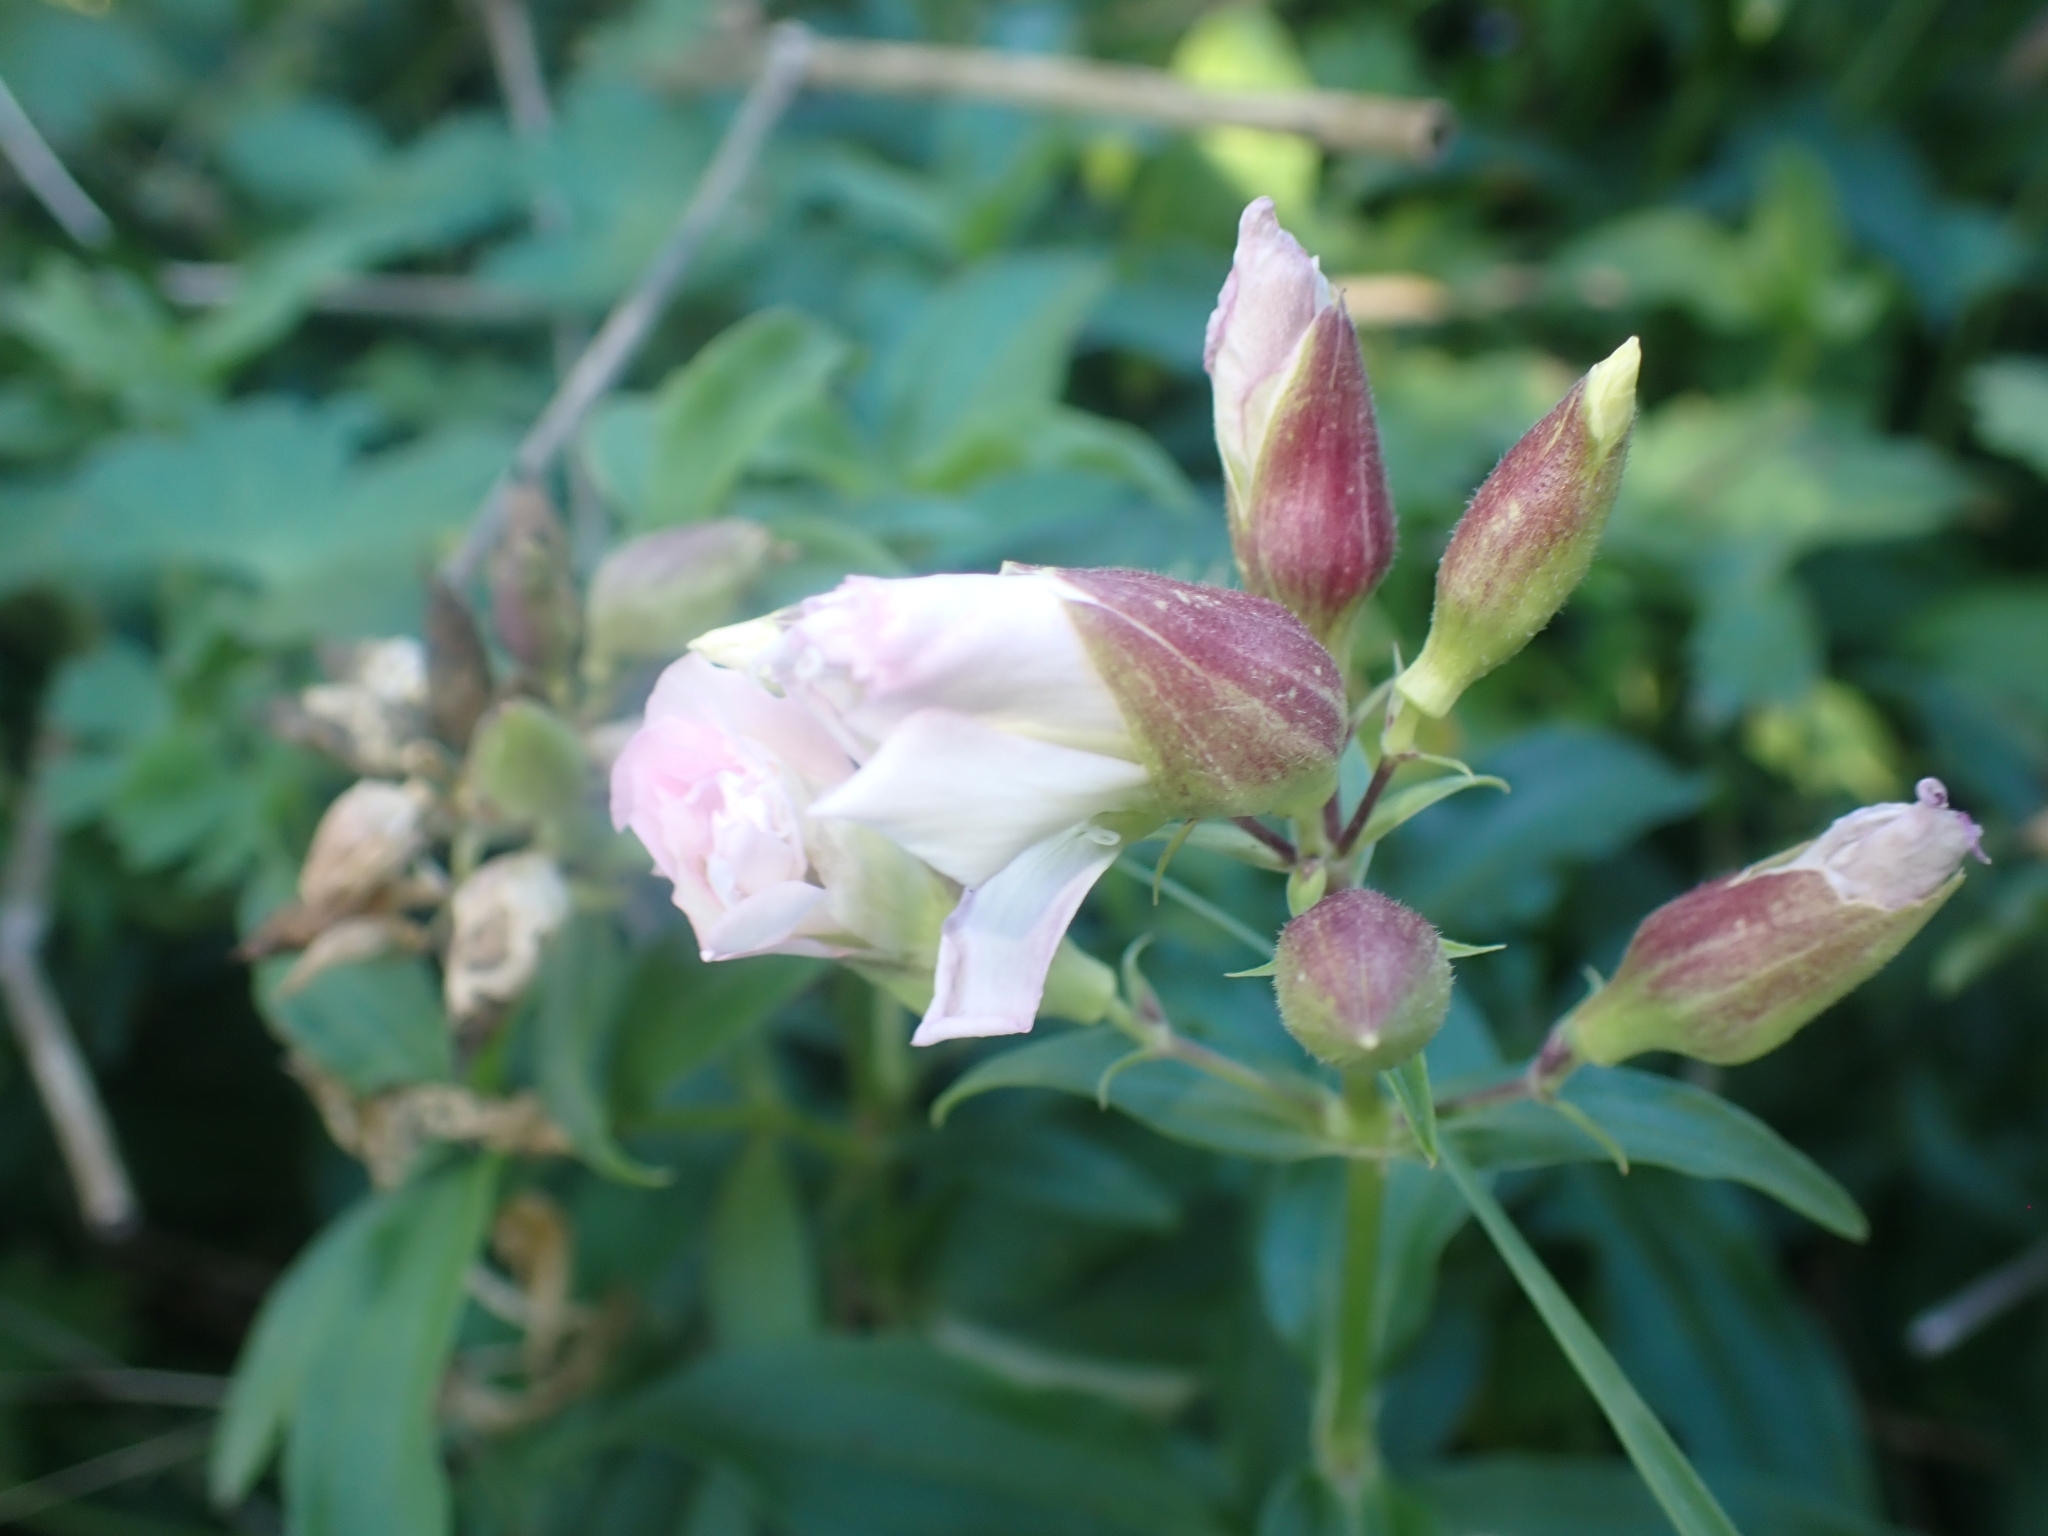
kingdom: Plantae
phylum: Tracheophyta
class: Magnoliopsida
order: Caryophyllales
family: Caryophyllaceae
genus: Saponaria
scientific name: Saponaria officinalis
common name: Soapwort
